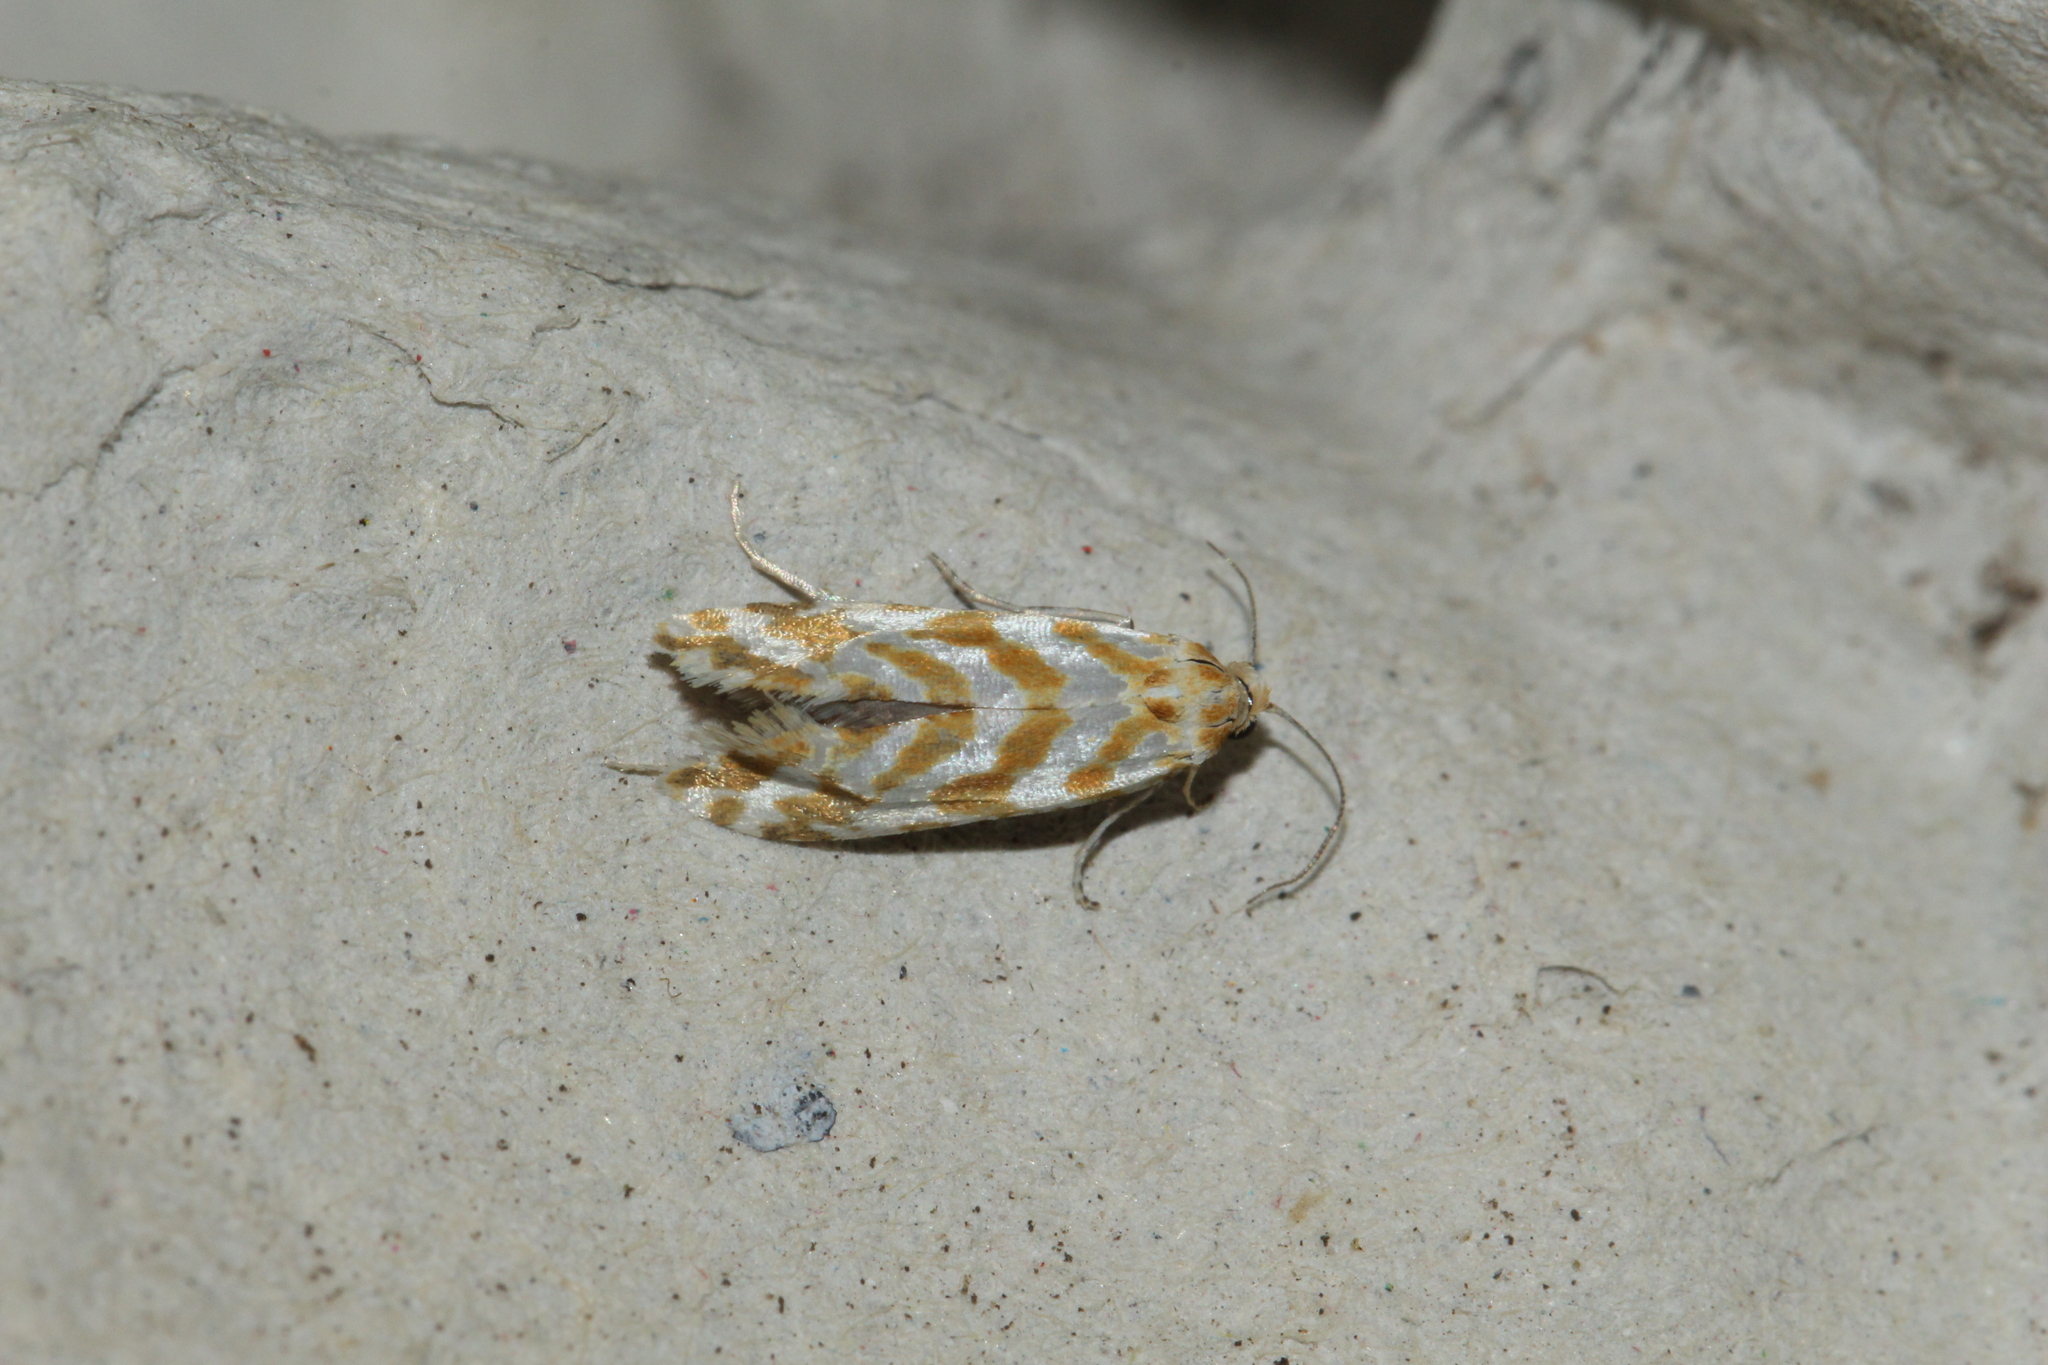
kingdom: Animalia
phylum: Arthropoda
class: Insecta
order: Lepidoptera
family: Tortricidae
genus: Rhyacionia
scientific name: Rhyacionia pinicolana
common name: Orange-spotted shoot
